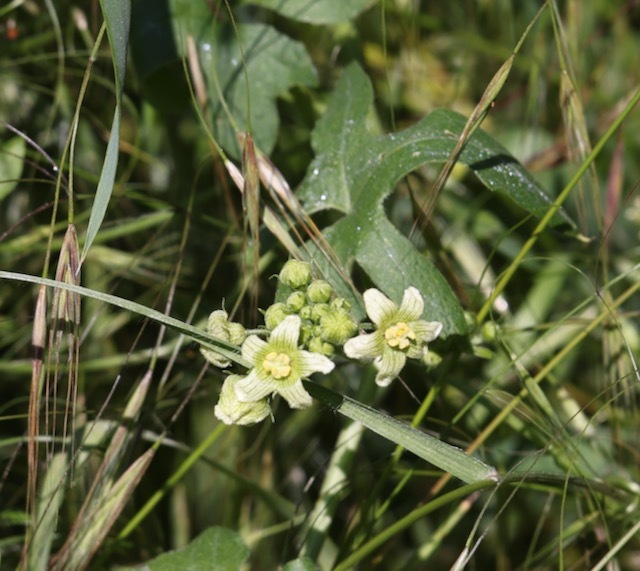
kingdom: Plantae
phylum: Tracheophyta
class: Magnoliopsida
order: Cucurbitales
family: Cucurbitaceae
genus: Bryonia
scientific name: Bryonia cretica
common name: Cretan bryony
